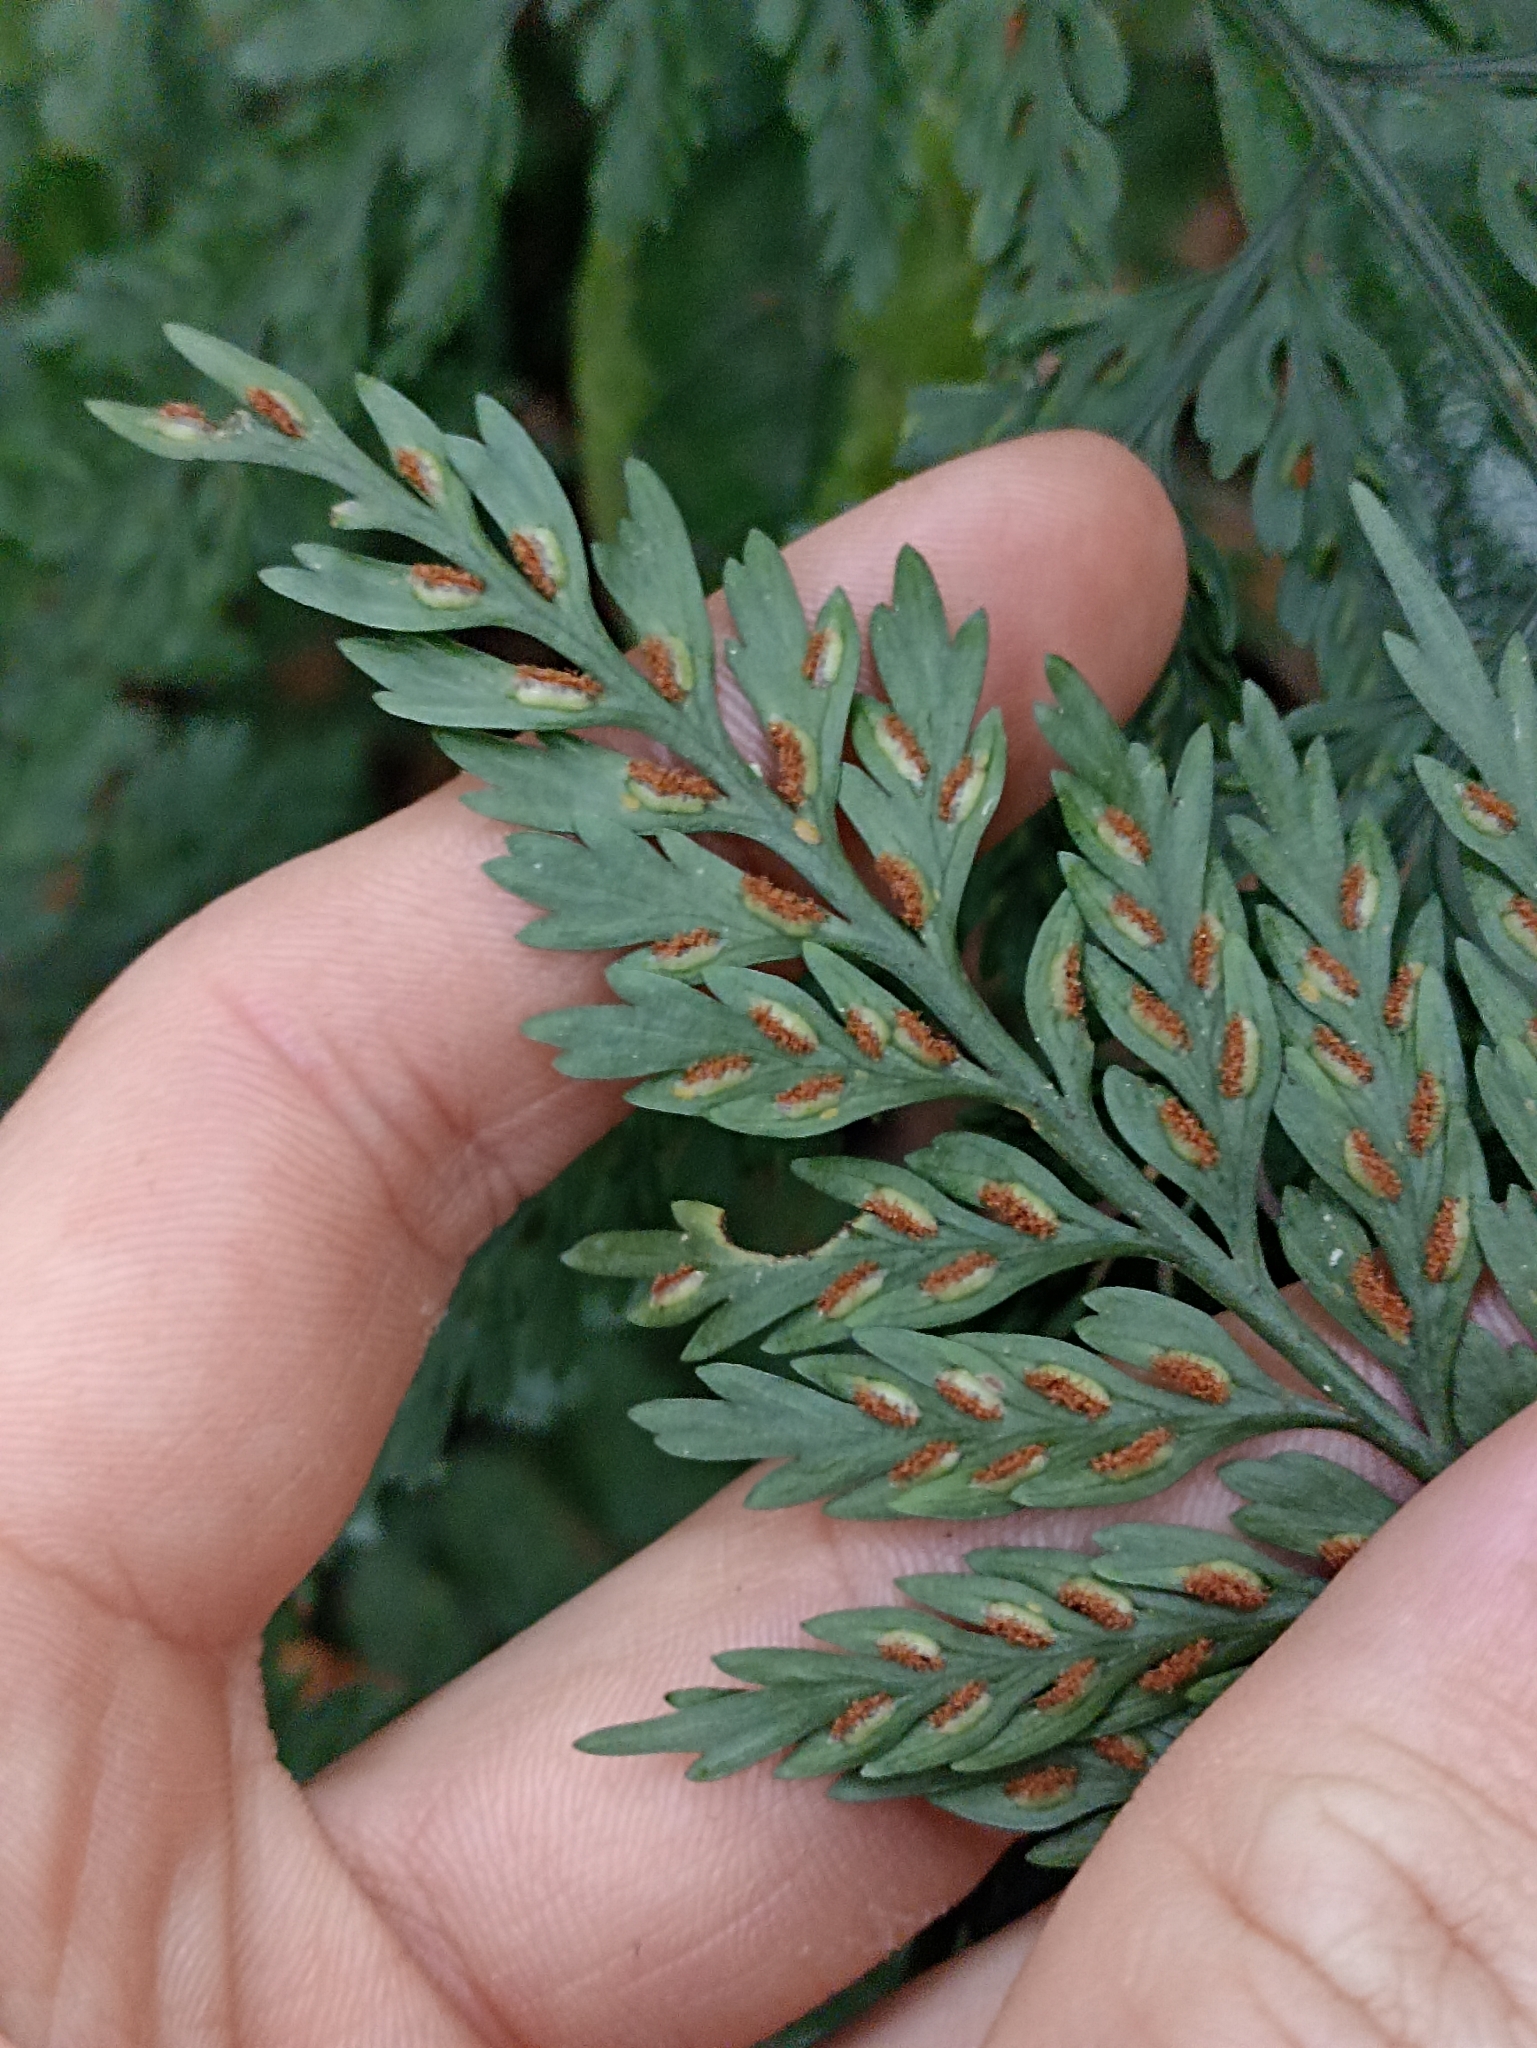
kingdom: Plantae
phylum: Tracheophyta
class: Polypodiopsida
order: Polypodiales
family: Aspleniaceae
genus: Asplenium
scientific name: Asplenium
